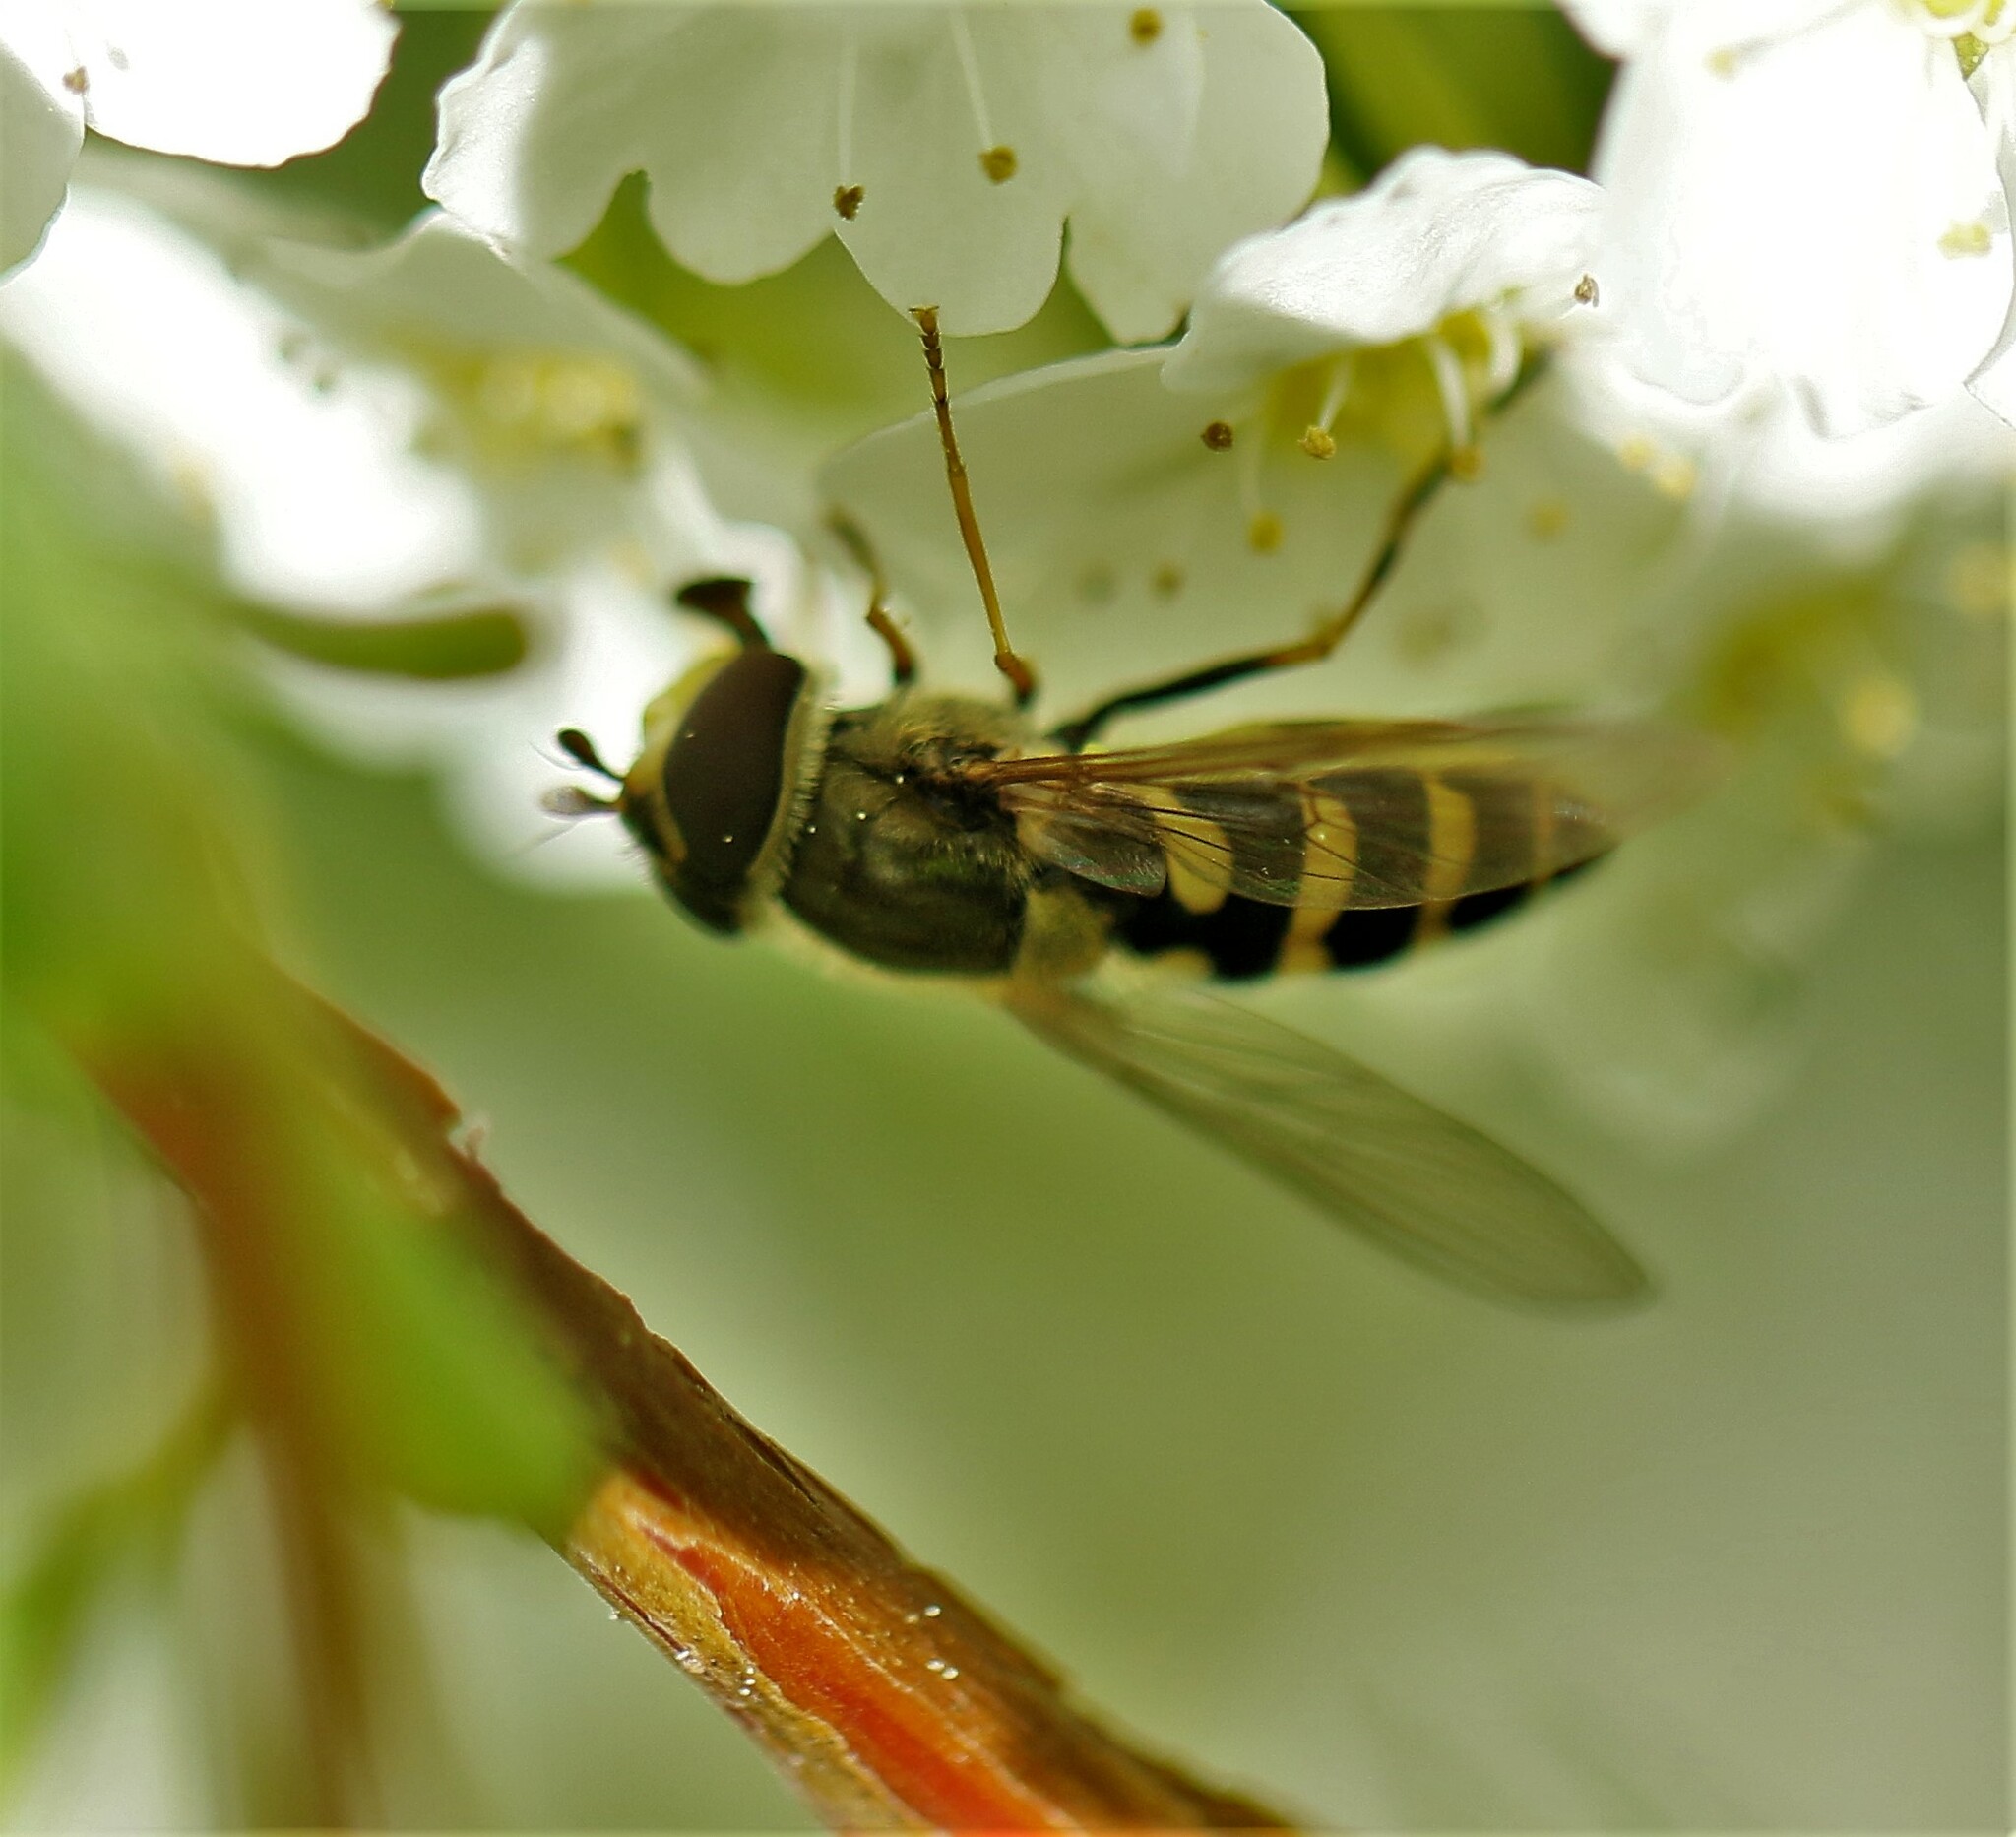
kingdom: Animalia
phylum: Arthropoda
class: Insecta
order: Diptera
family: Syrphidae
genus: Syrphus
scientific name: Syrphus
